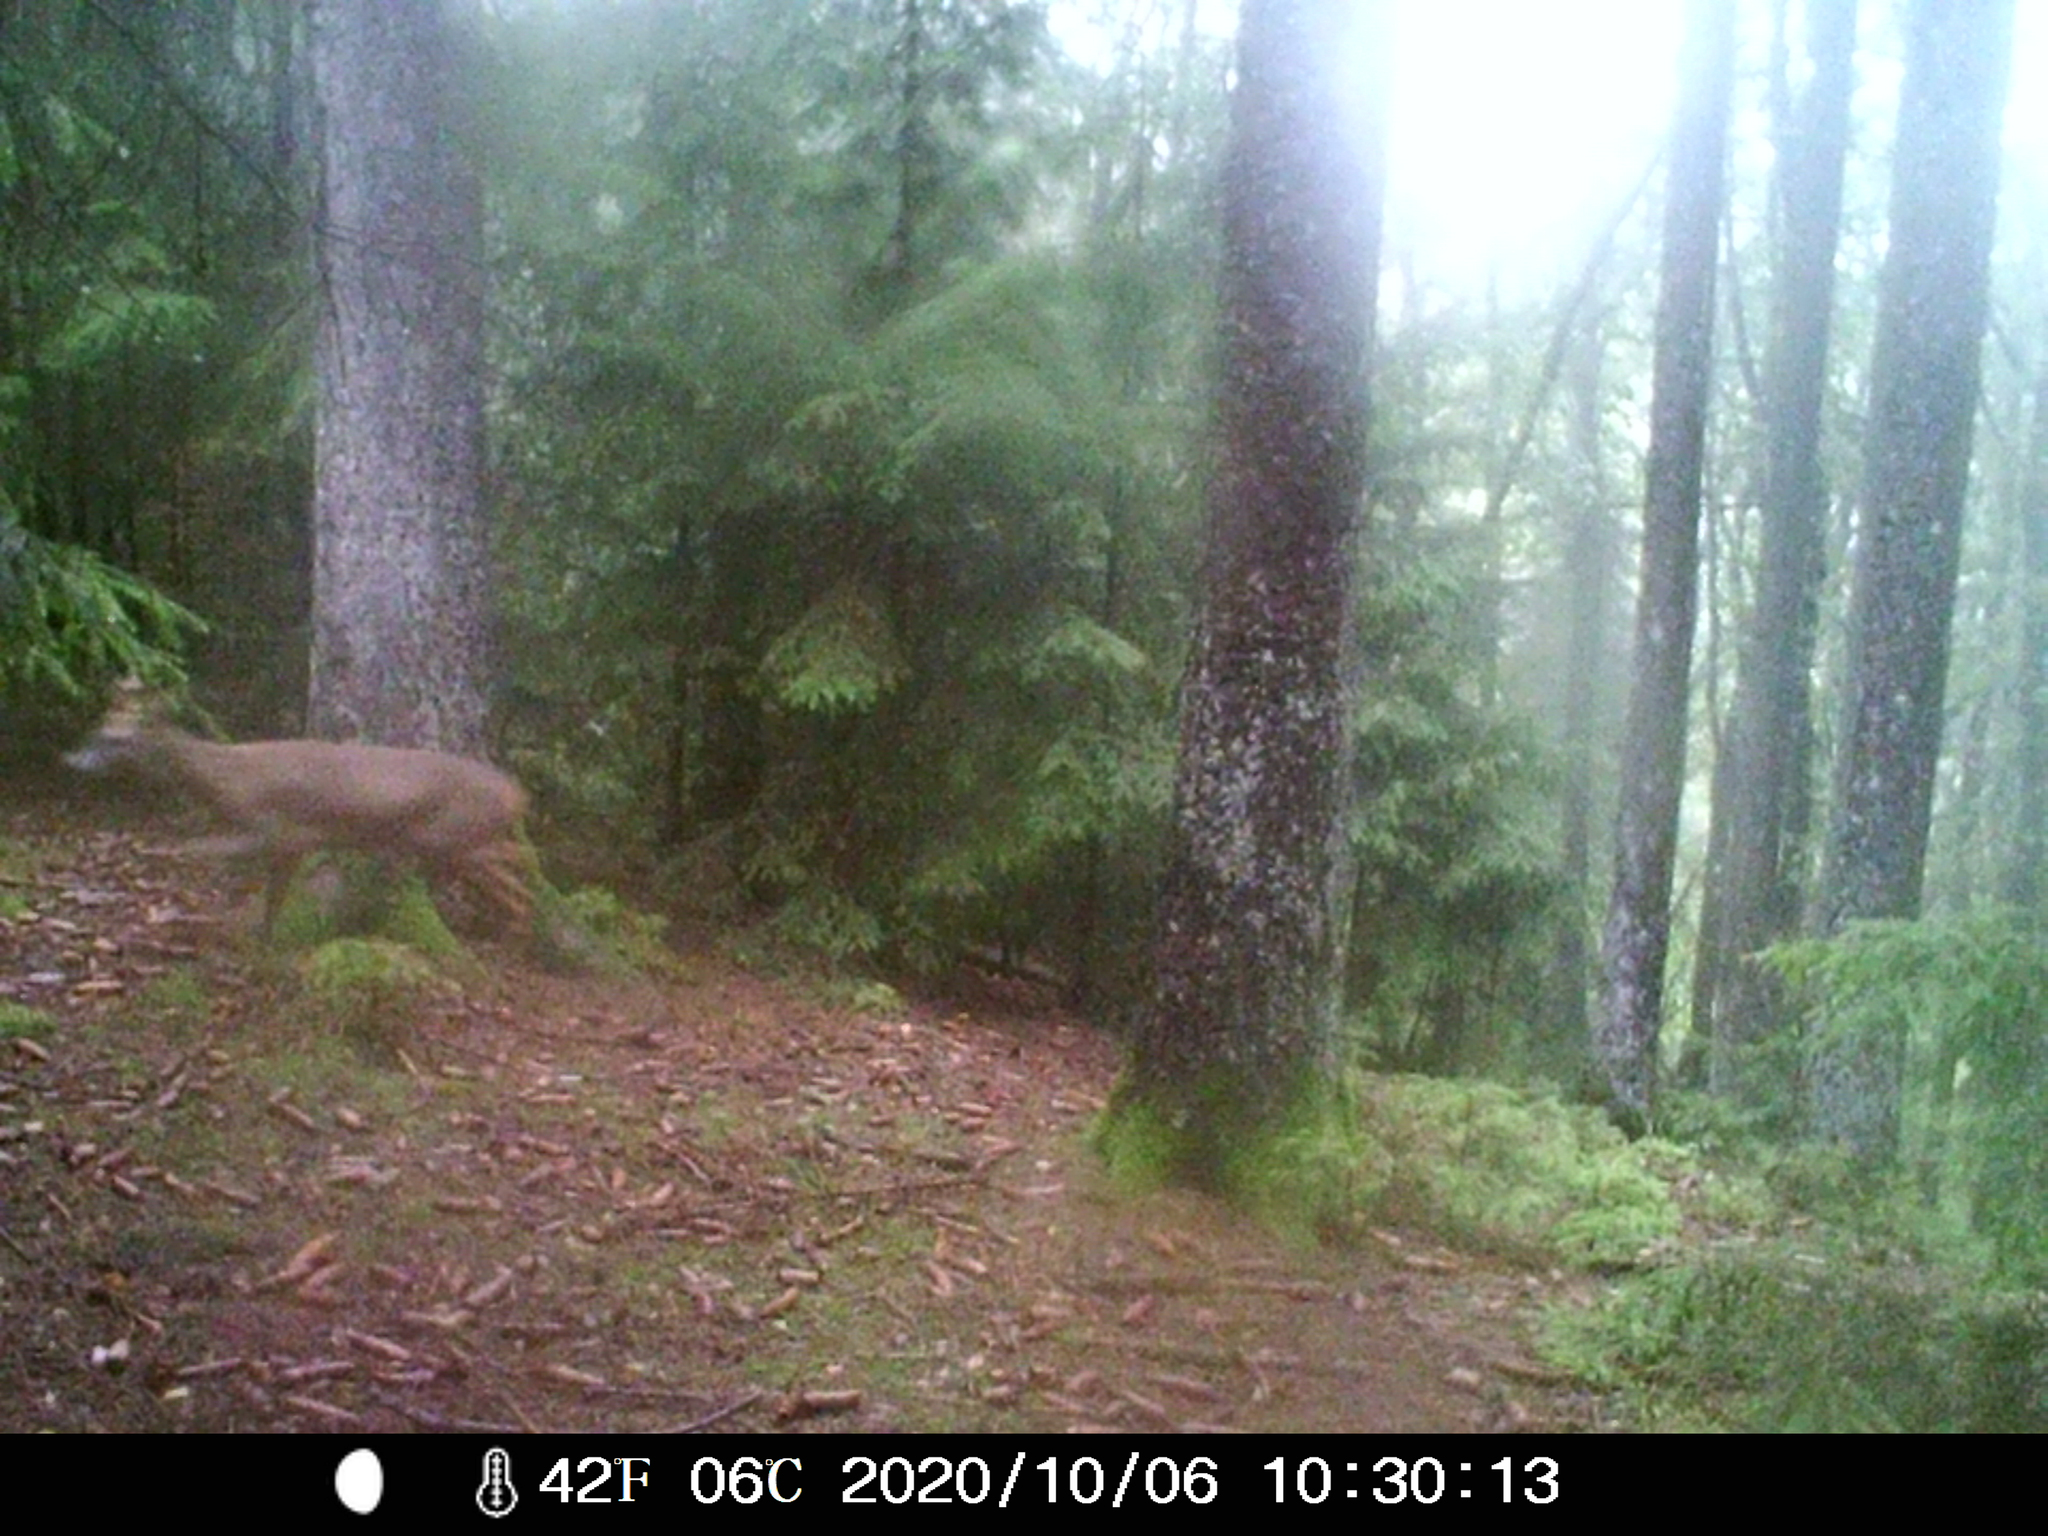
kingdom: Animalia
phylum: Chordata
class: Mammalia
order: Artiodactyla
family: Cervidae
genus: Capreolus
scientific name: Capreolus capreolus
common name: Western roe deer
